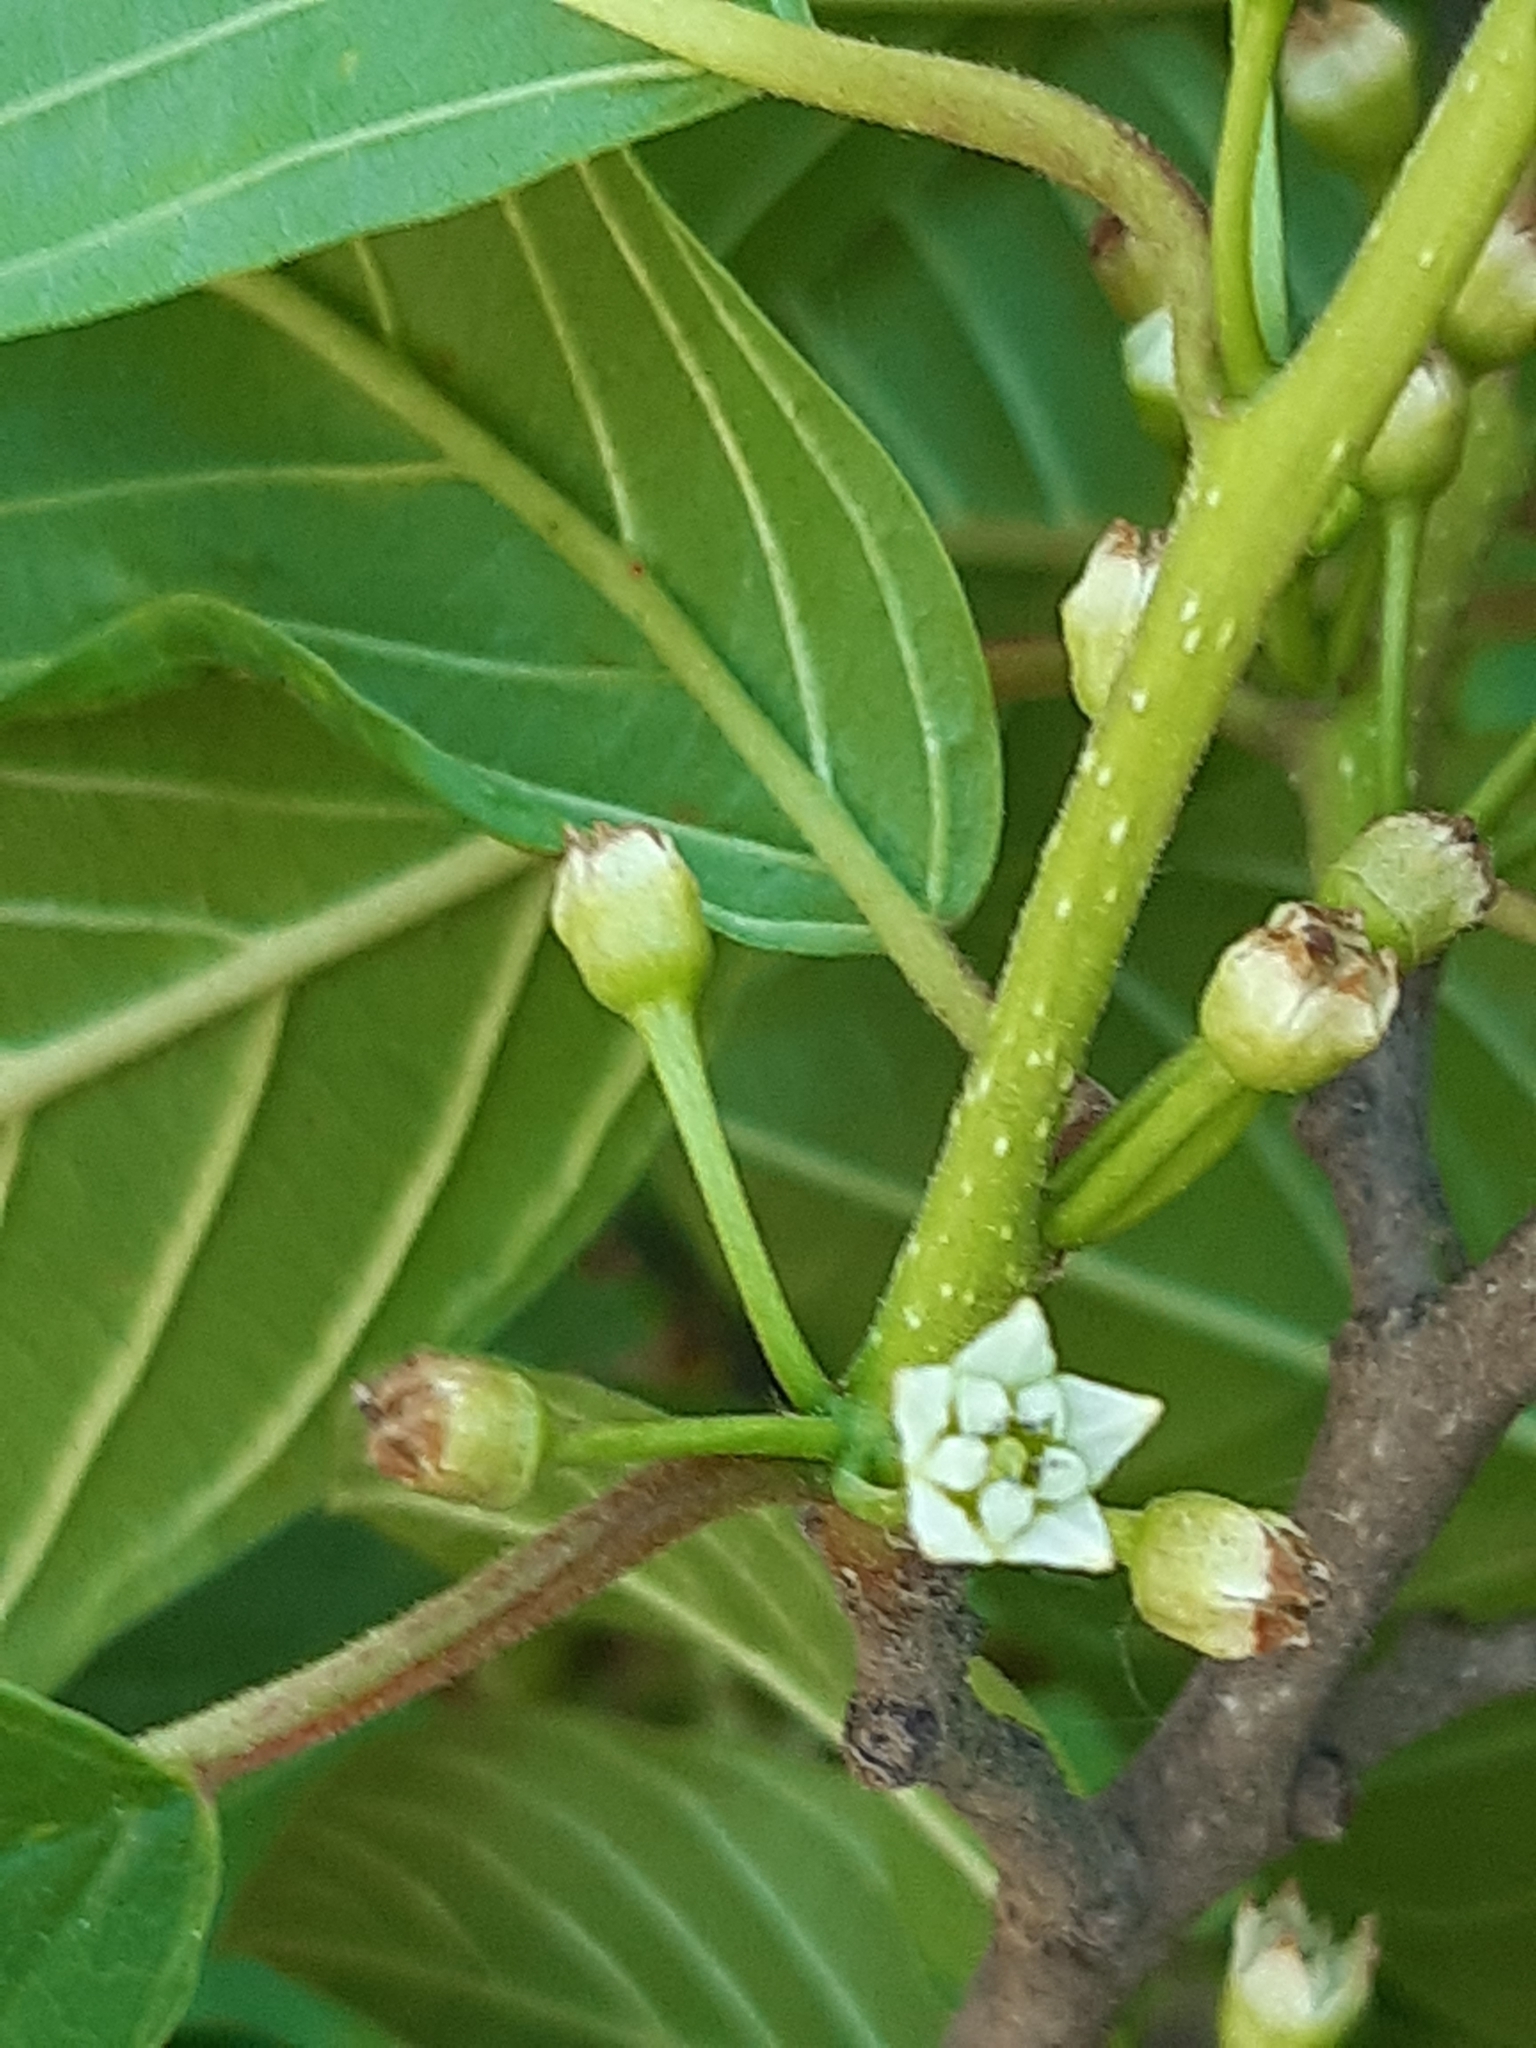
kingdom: Plantae
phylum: Tracheophyta
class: Magnoliopsida
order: Rosales
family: Rhamnaceae
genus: Frangula
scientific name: Frangula alnus
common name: Alder buckthorn
